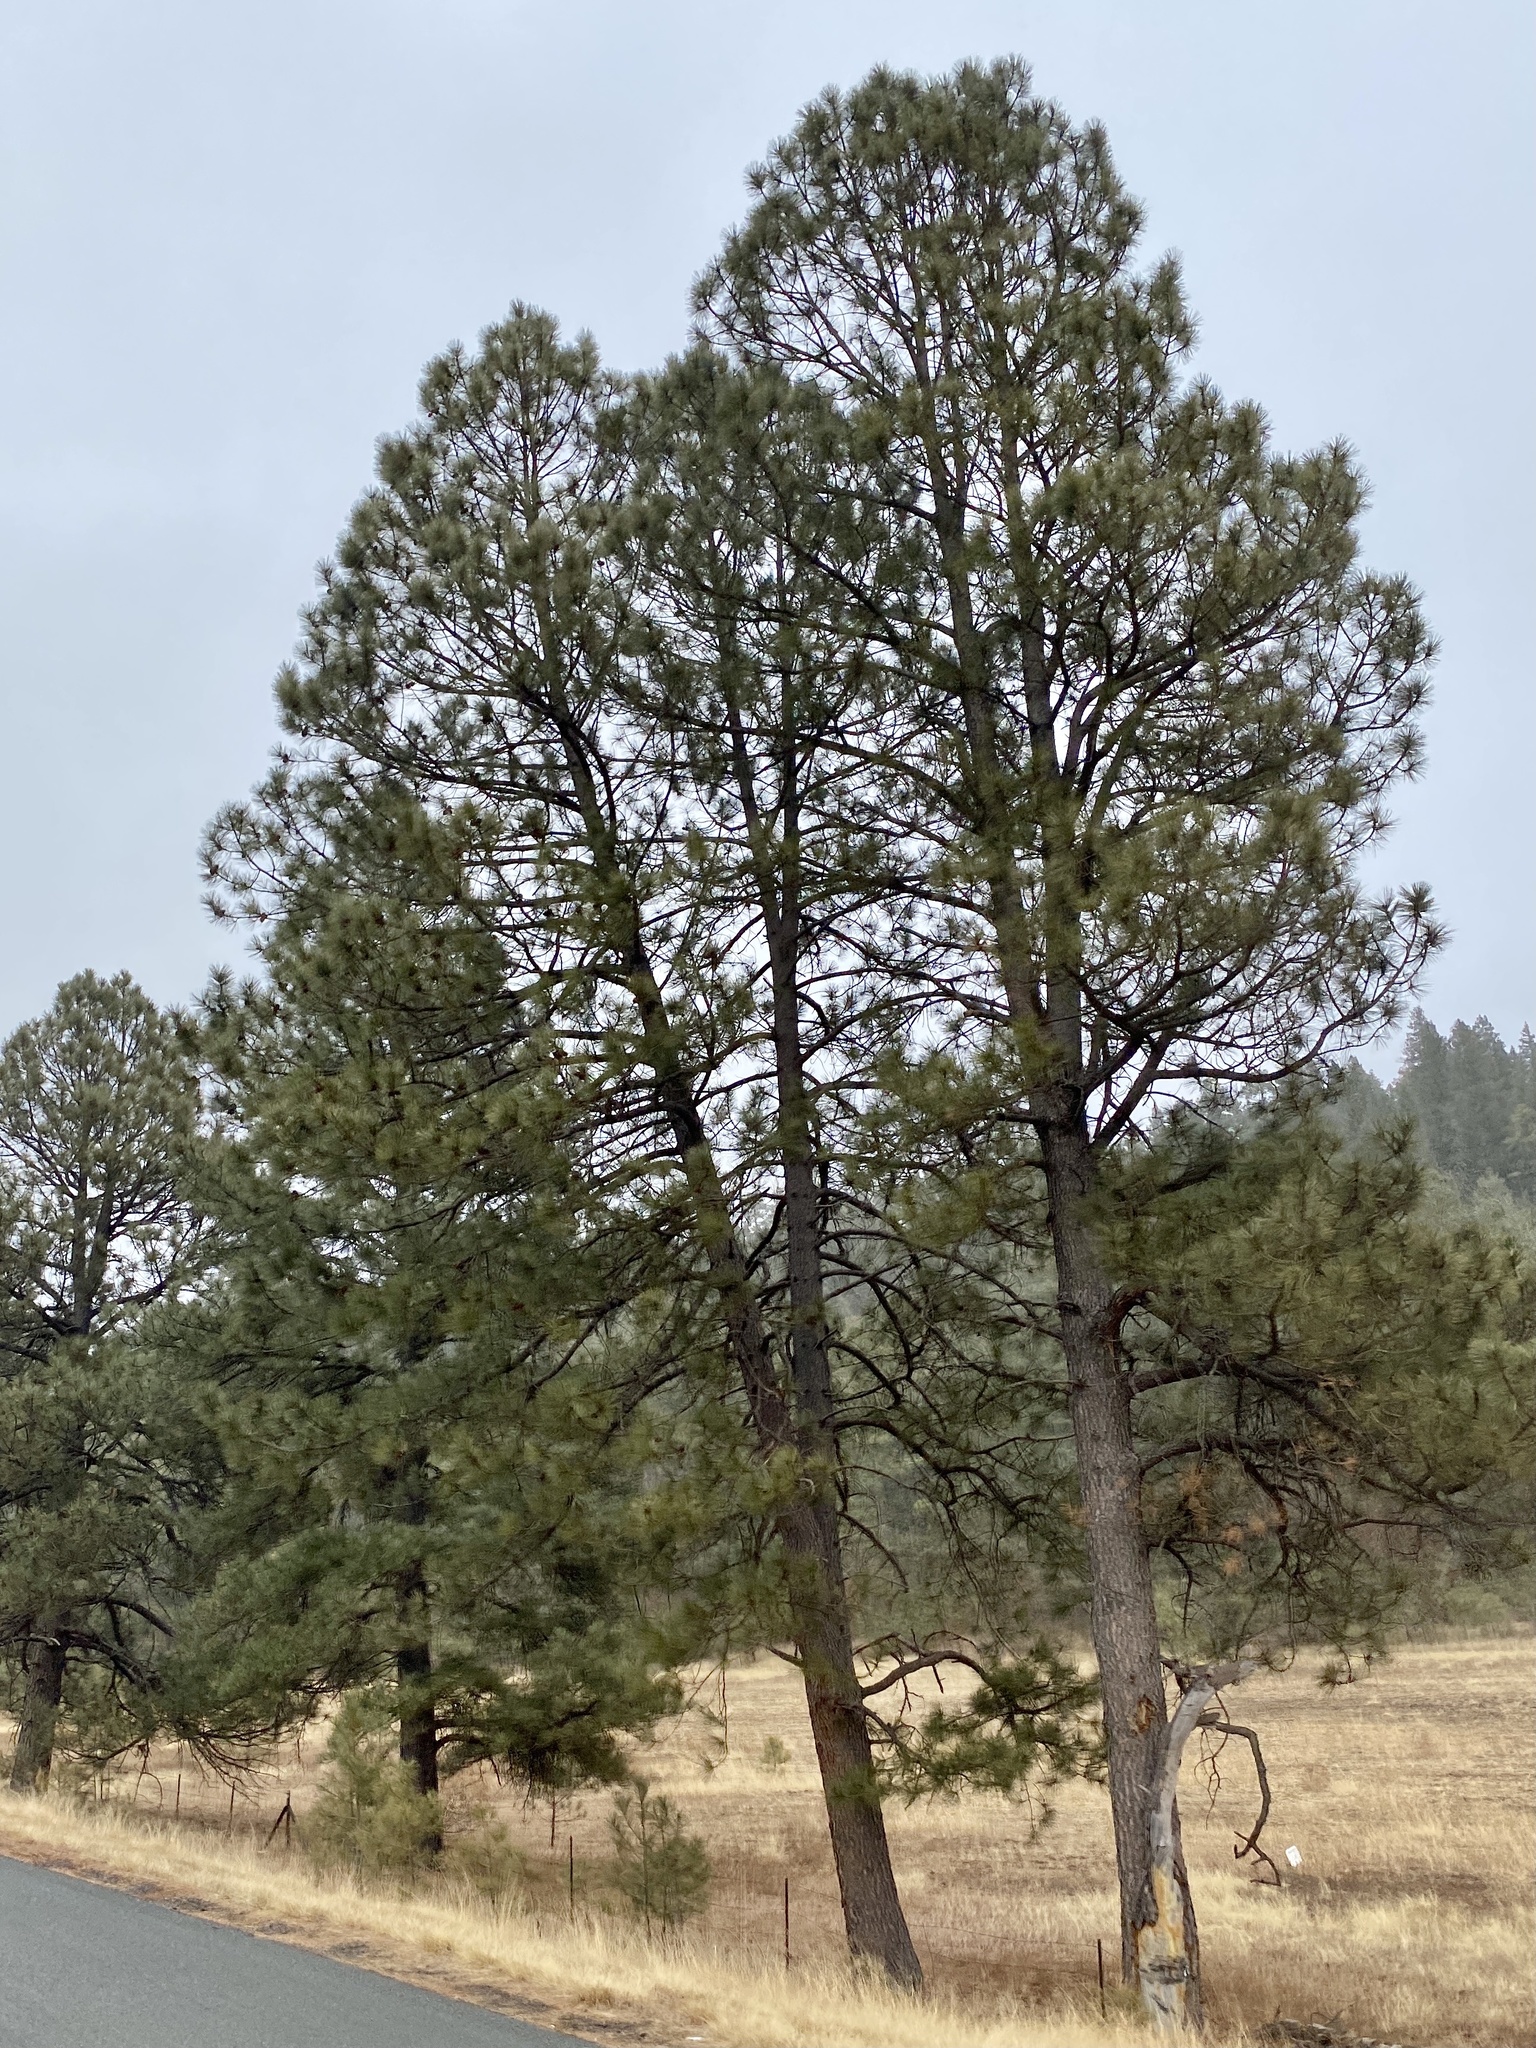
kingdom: Plantae
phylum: Tracheophyta
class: Pinopsida
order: Pinales
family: Pinaceae
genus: Pinus
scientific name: Pinus ponderosa
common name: Western yellow-pine
